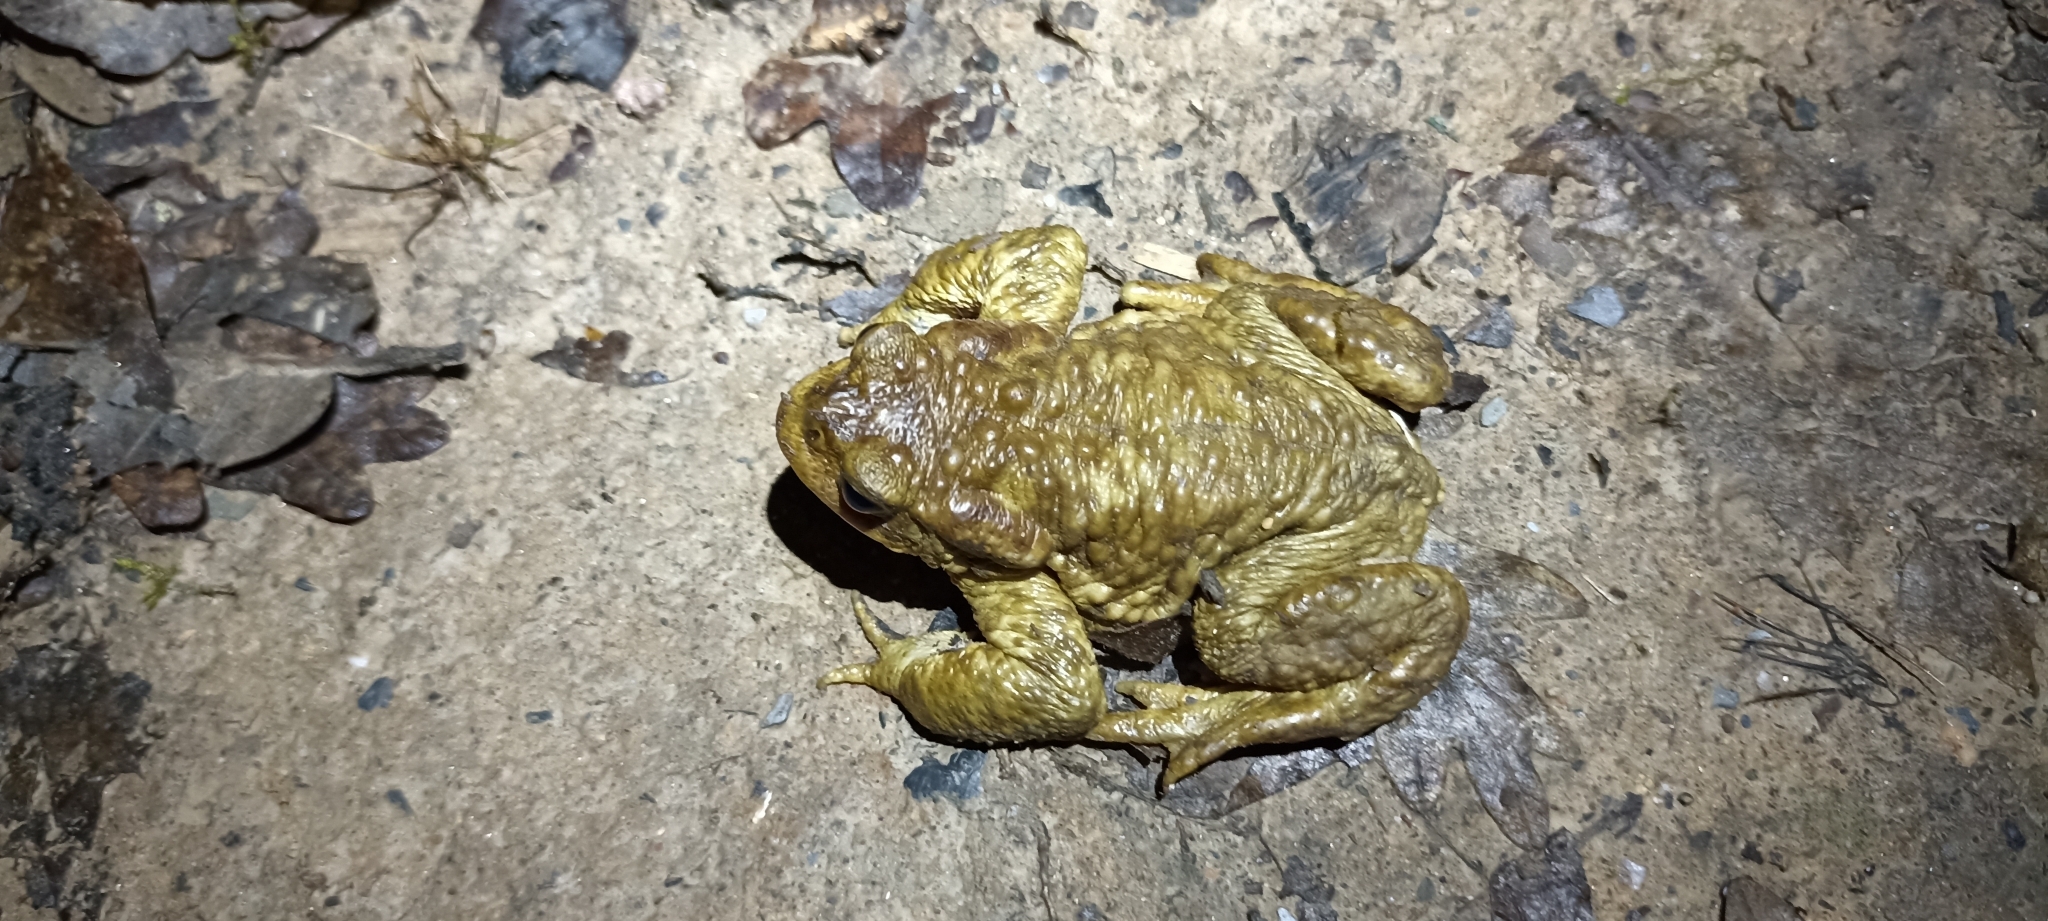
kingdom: Animalia
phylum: Chordata
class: Amphibia
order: Anura
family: Bufonidae
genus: Bufo
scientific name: Bufo spinosus
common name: Western common toad
